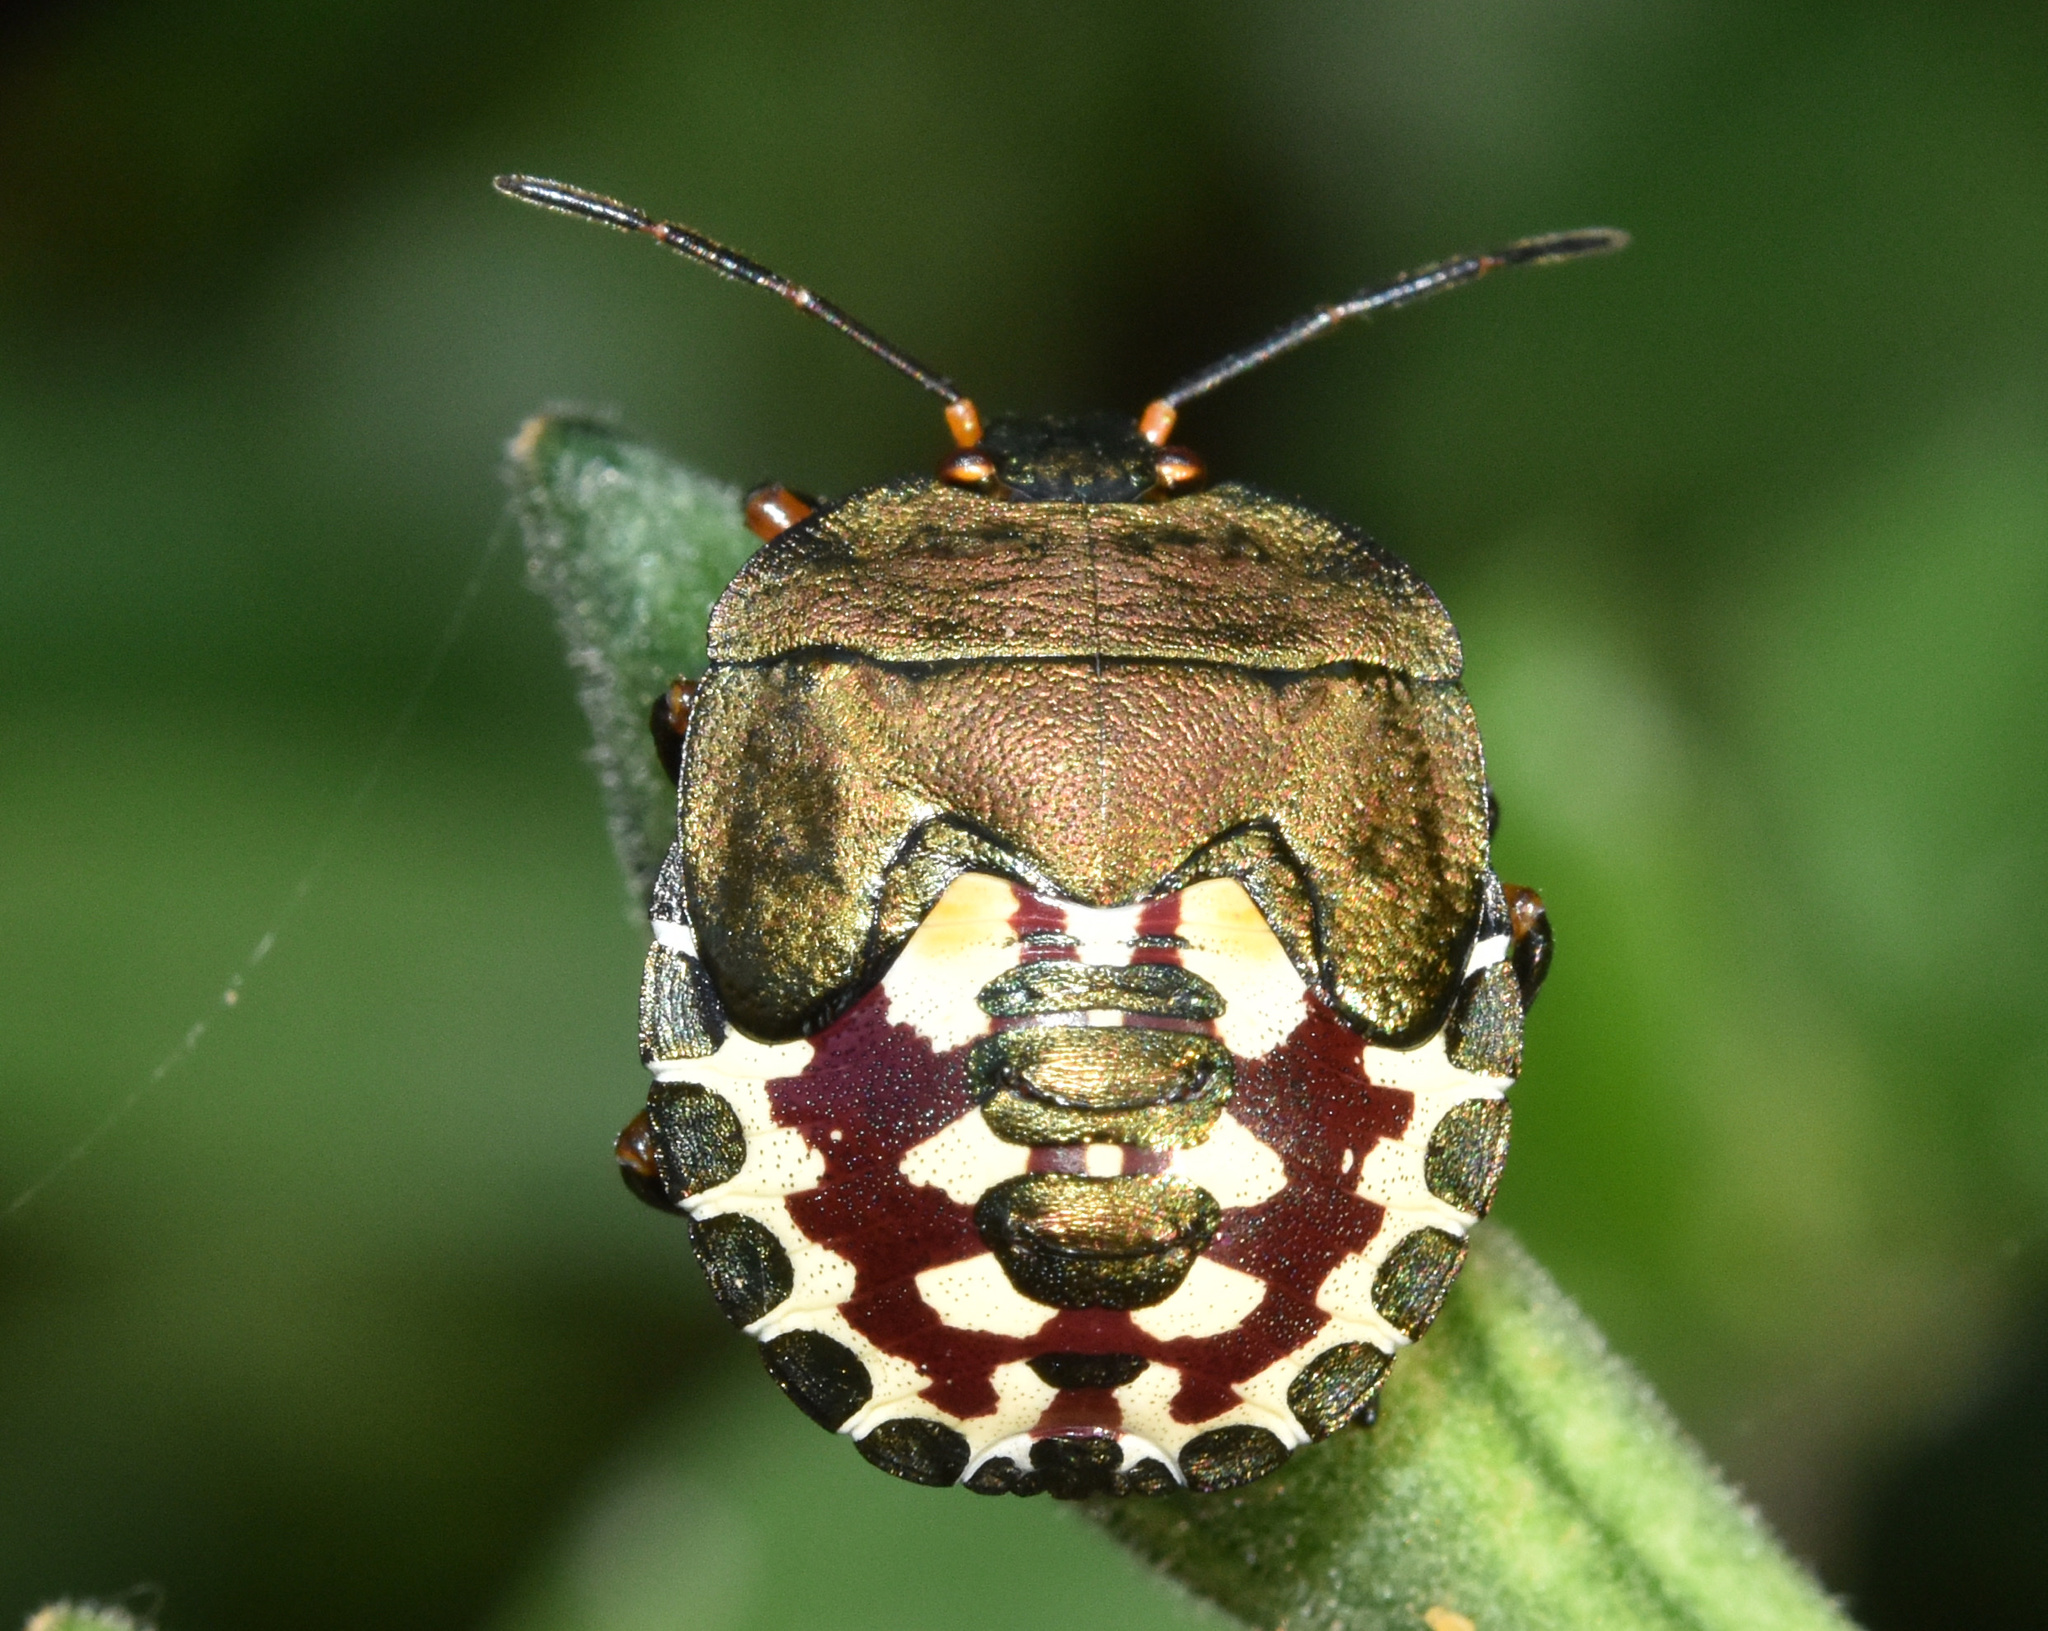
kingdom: Animalia
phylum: Arthropoda
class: Insecta
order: Hemiptera
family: Pentatomidae
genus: Caura
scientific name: Caura rufiventris
